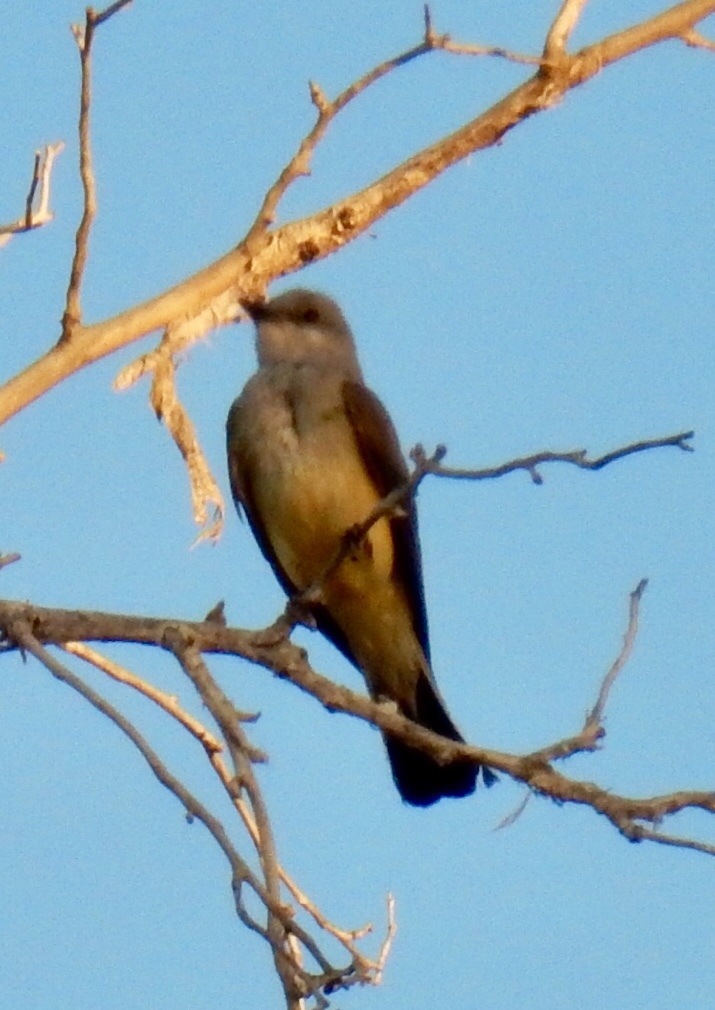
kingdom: Animalia
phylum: Chordata
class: Aves
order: Passeriformes
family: Tyrannidae
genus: Tyrannus
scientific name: Tyrannus verticalis
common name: Western kingbird
